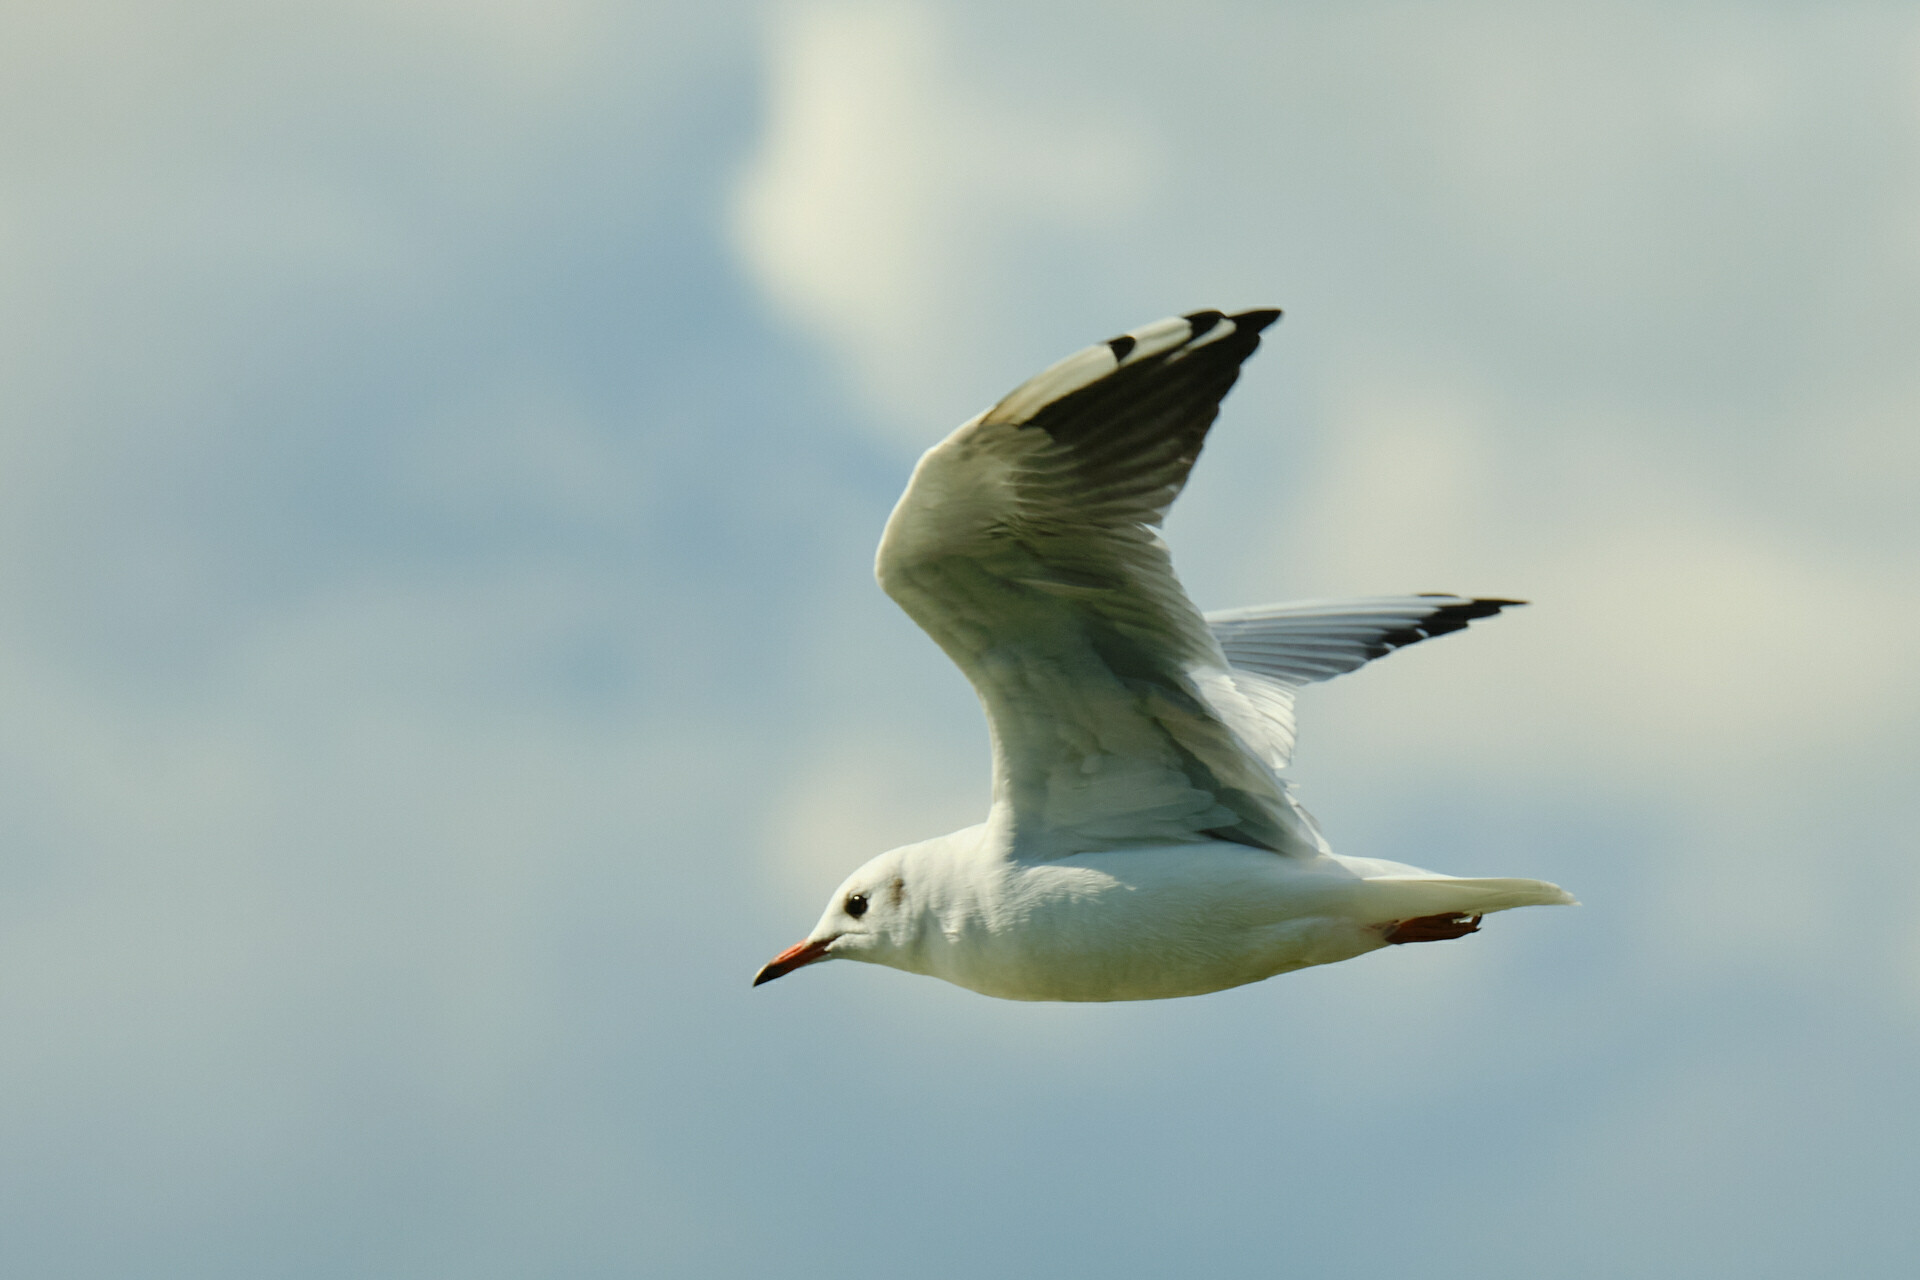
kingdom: Animalia
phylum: Chordata
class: Aves
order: Charadriiformes
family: Laridae
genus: Chroicocephalus
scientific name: Chroicocephalus ridibundus
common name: Black-headed gull
